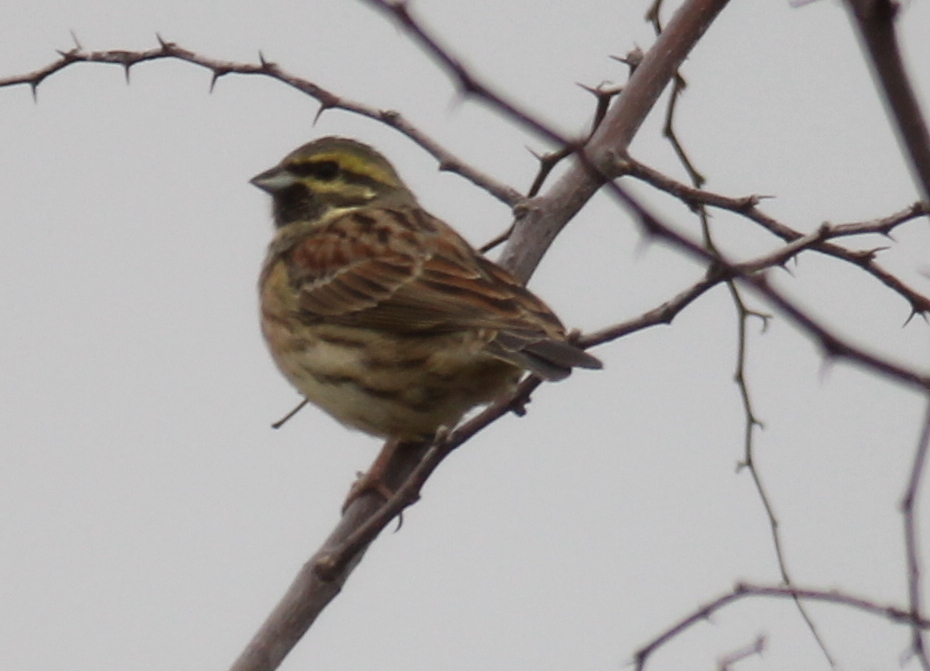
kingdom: Animalia
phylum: Chordata
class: Aves
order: Passeriformes
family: Emberizidae
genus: Emberiza
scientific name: Emberiza cirlus
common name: Cirl bunting
